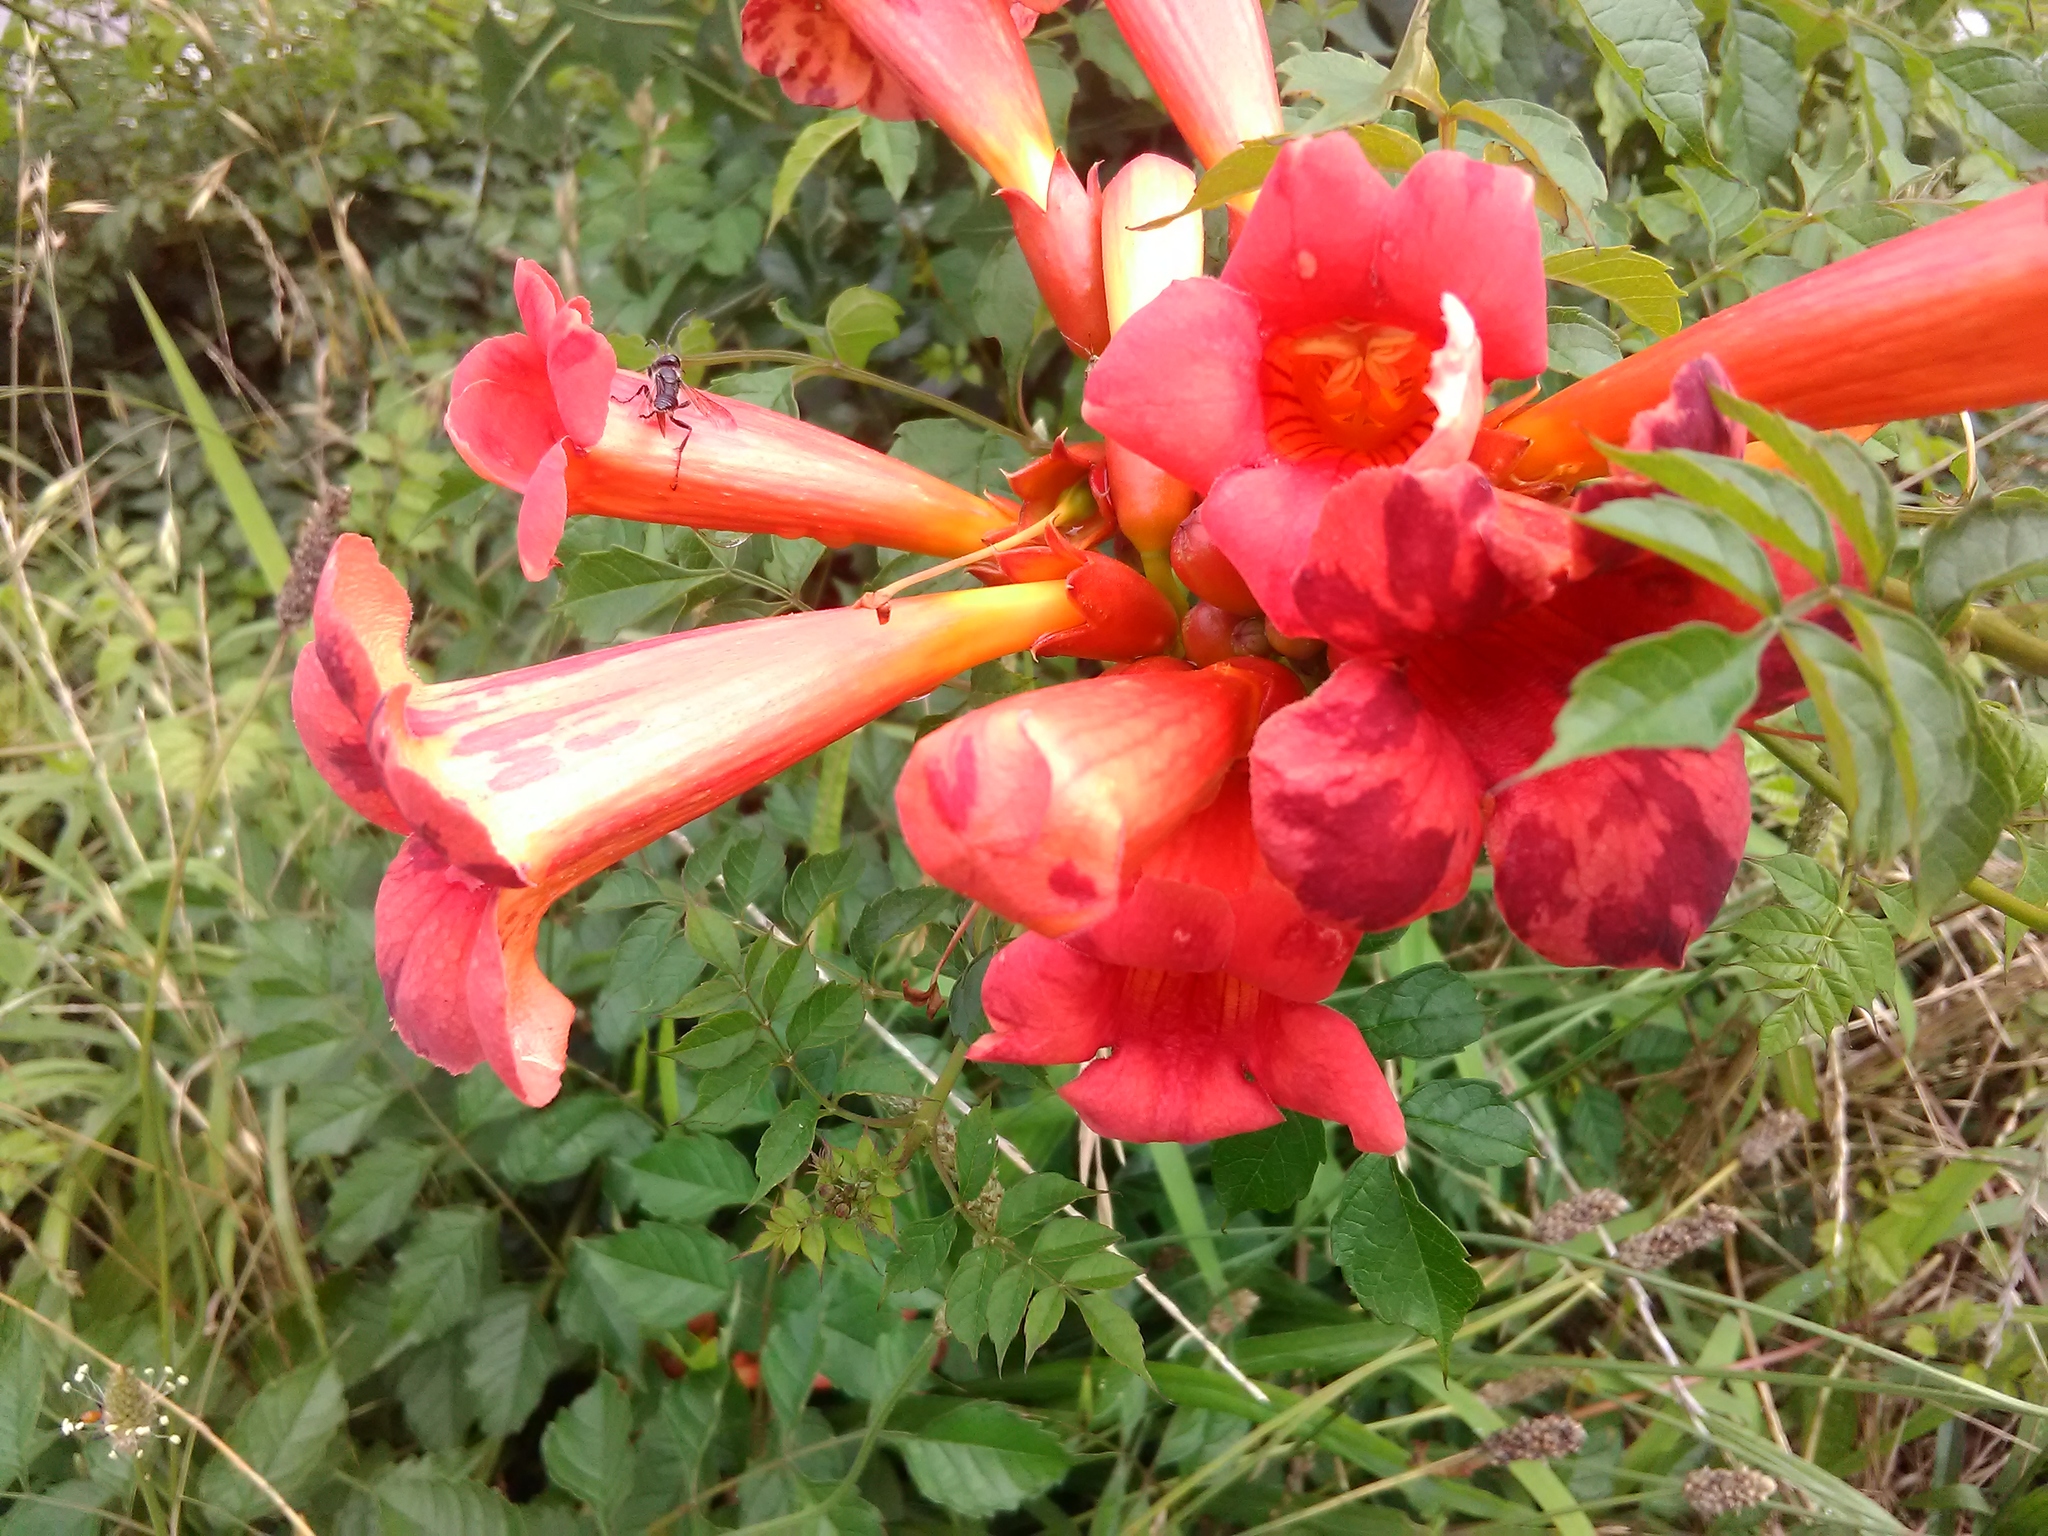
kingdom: Plantae
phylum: Tracheophyta
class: Magnoliopsida
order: Lamiales
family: Bignoniaceae
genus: Campsis
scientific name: Campsis radicans
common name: Trumpet-creeper
